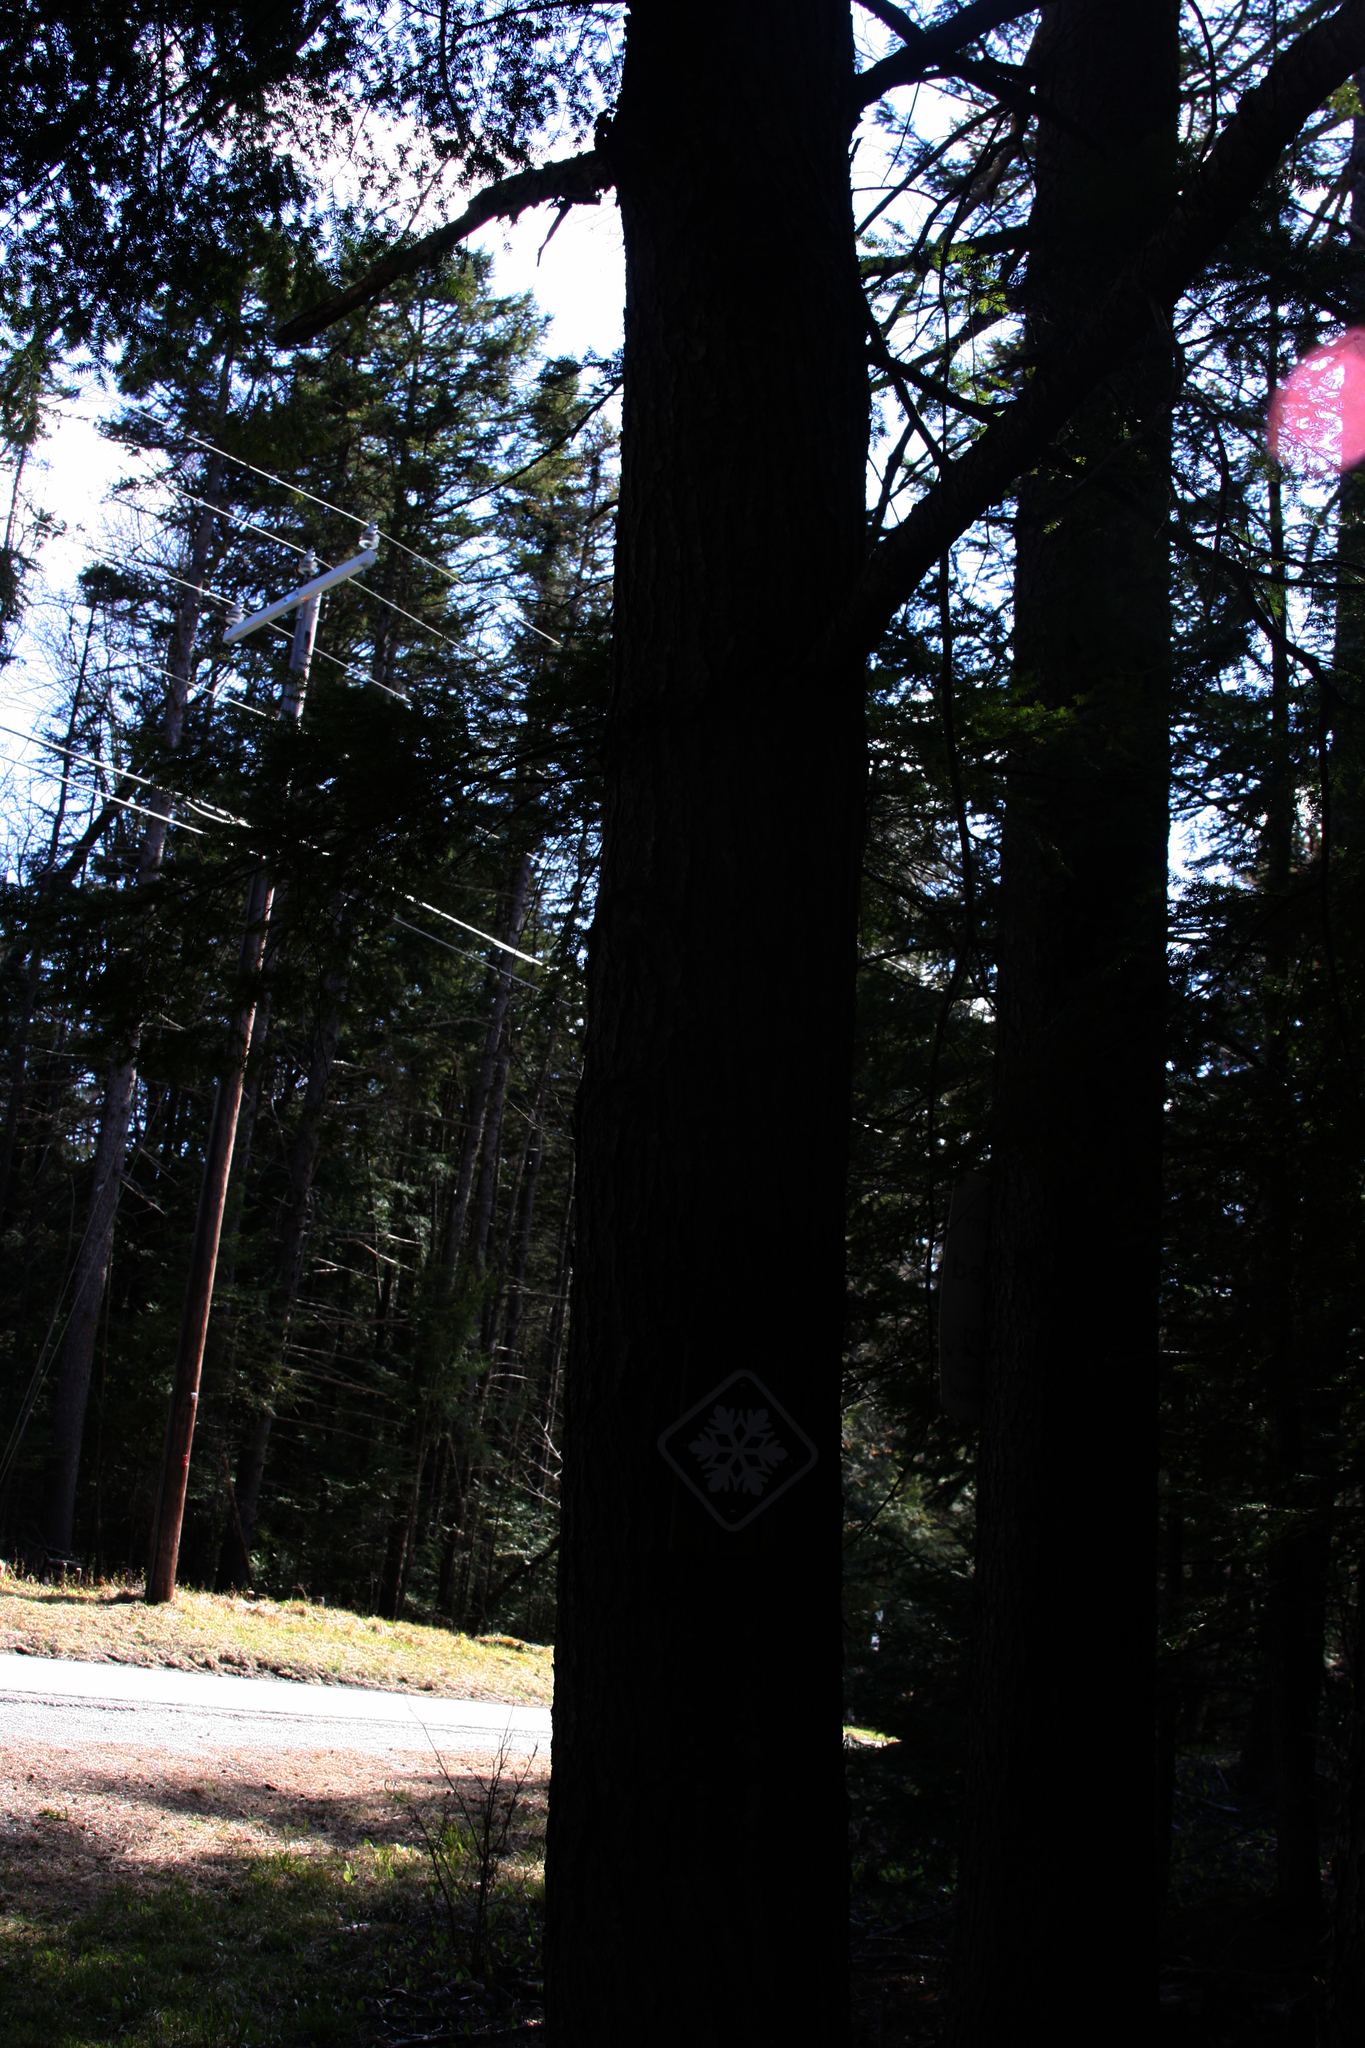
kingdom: Plantae
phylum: Tracheophyta
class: Pinopsida
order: Pinales
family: Pinaceae
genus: Tsuga
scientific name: Tsuga canadensis
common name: Eastern hemlock
